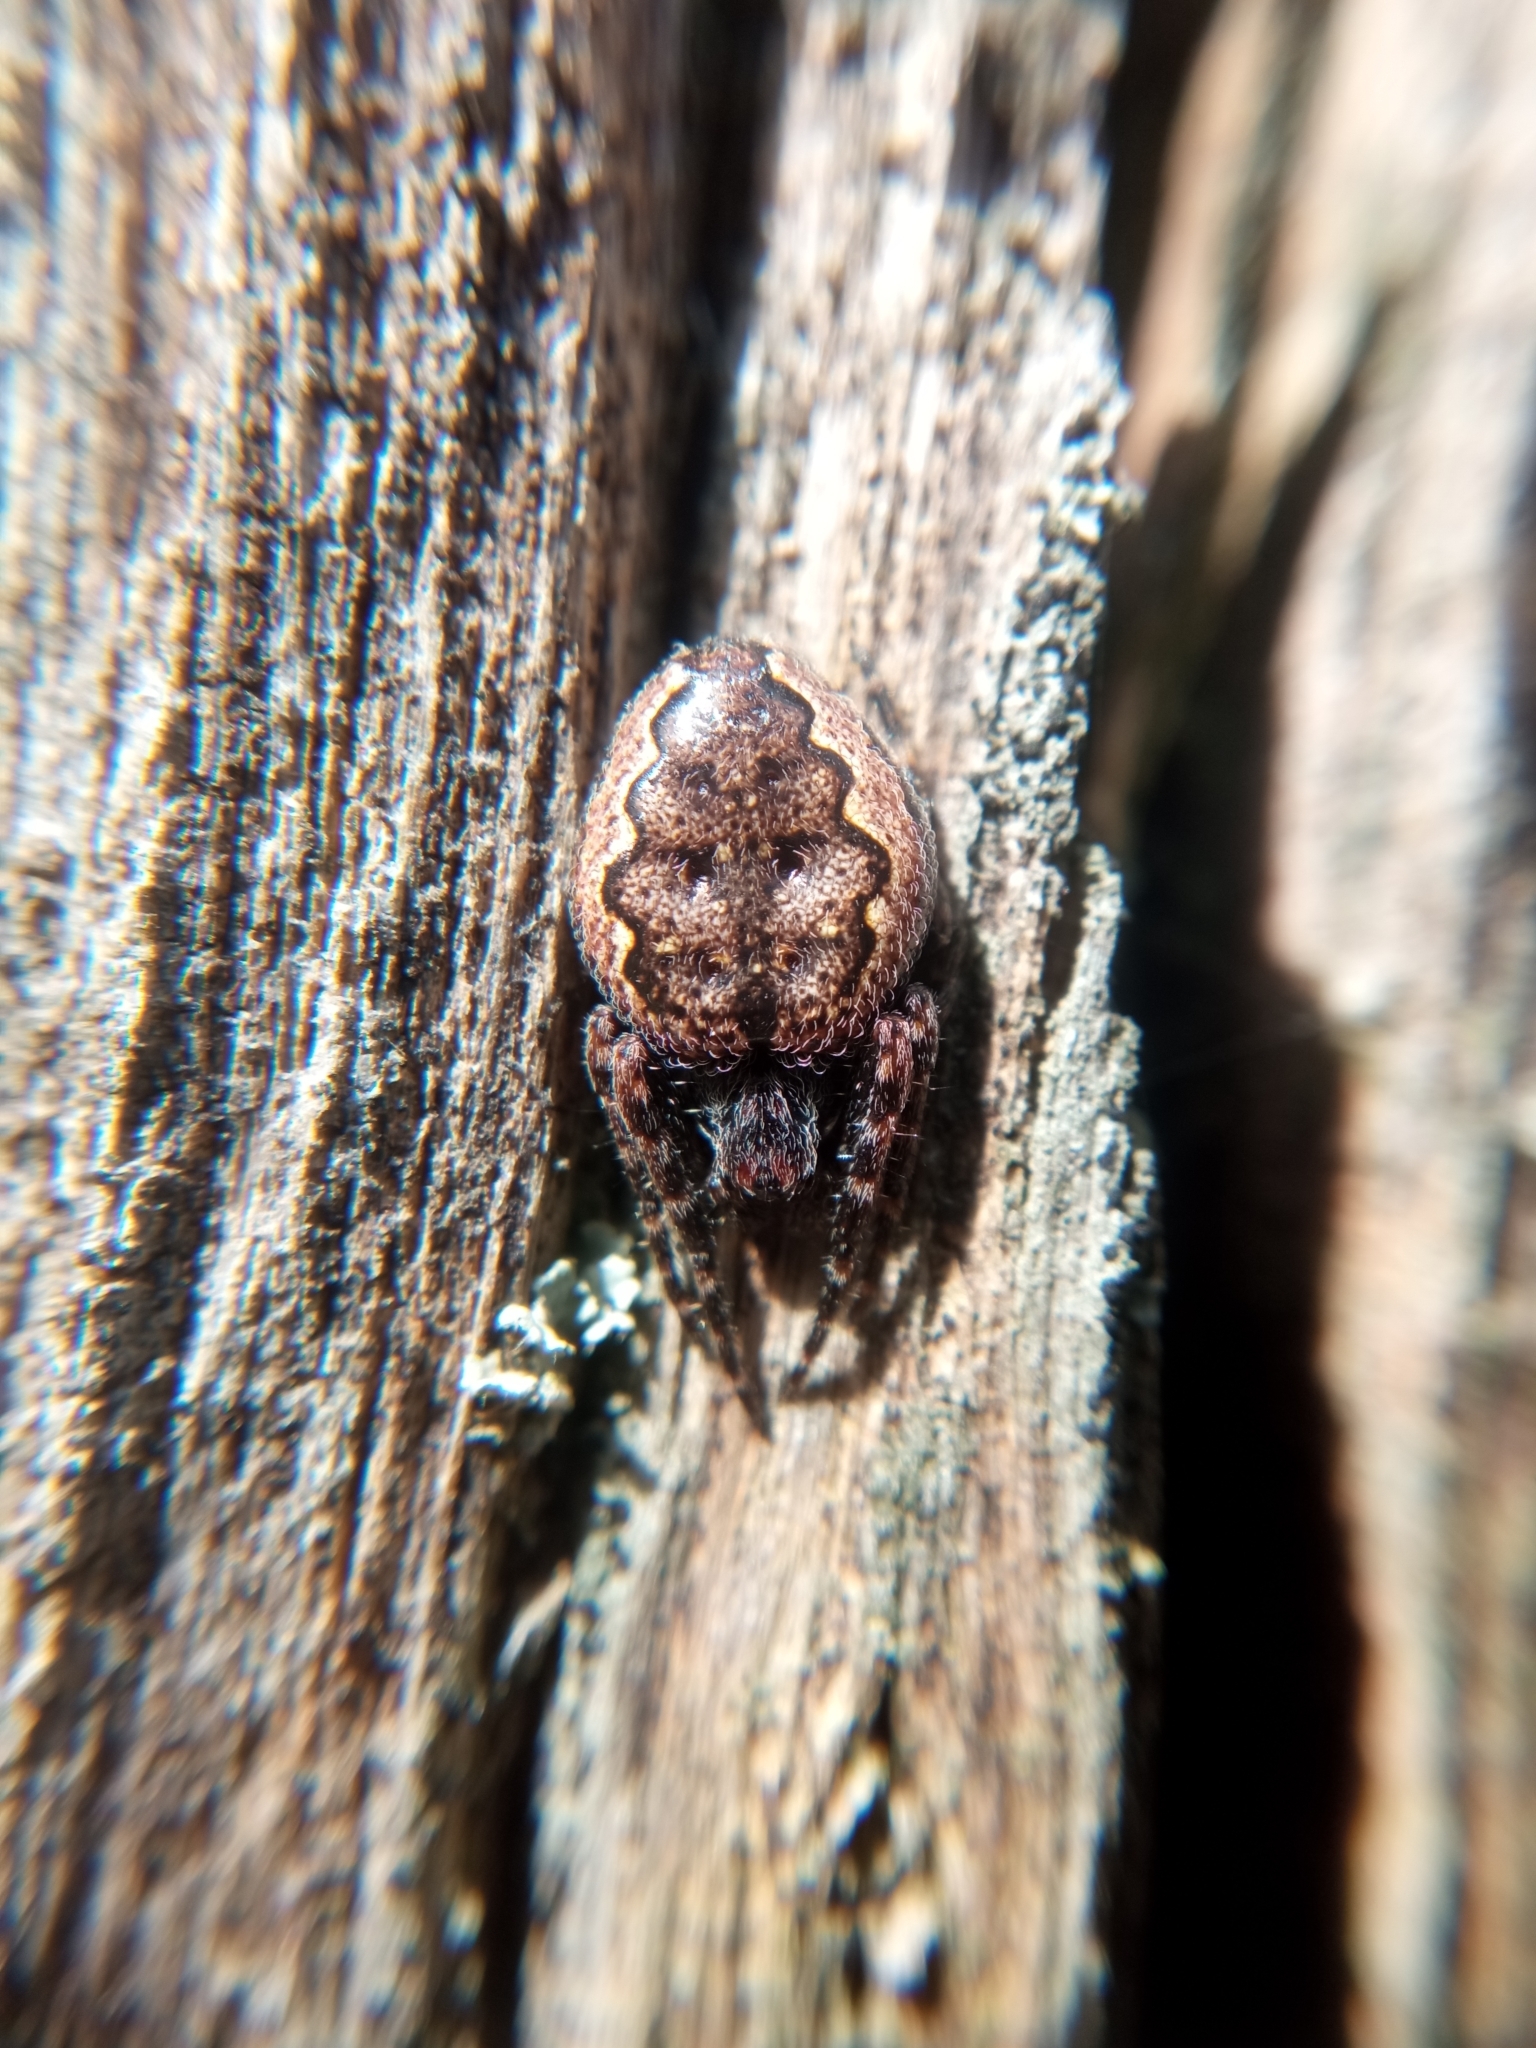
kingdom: Animalia
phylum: Arthropoda
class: Arachnida
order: Araneae
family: Araneidae
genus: Nuctenea
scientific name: Nuctenea umbratica
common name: Toad spider
